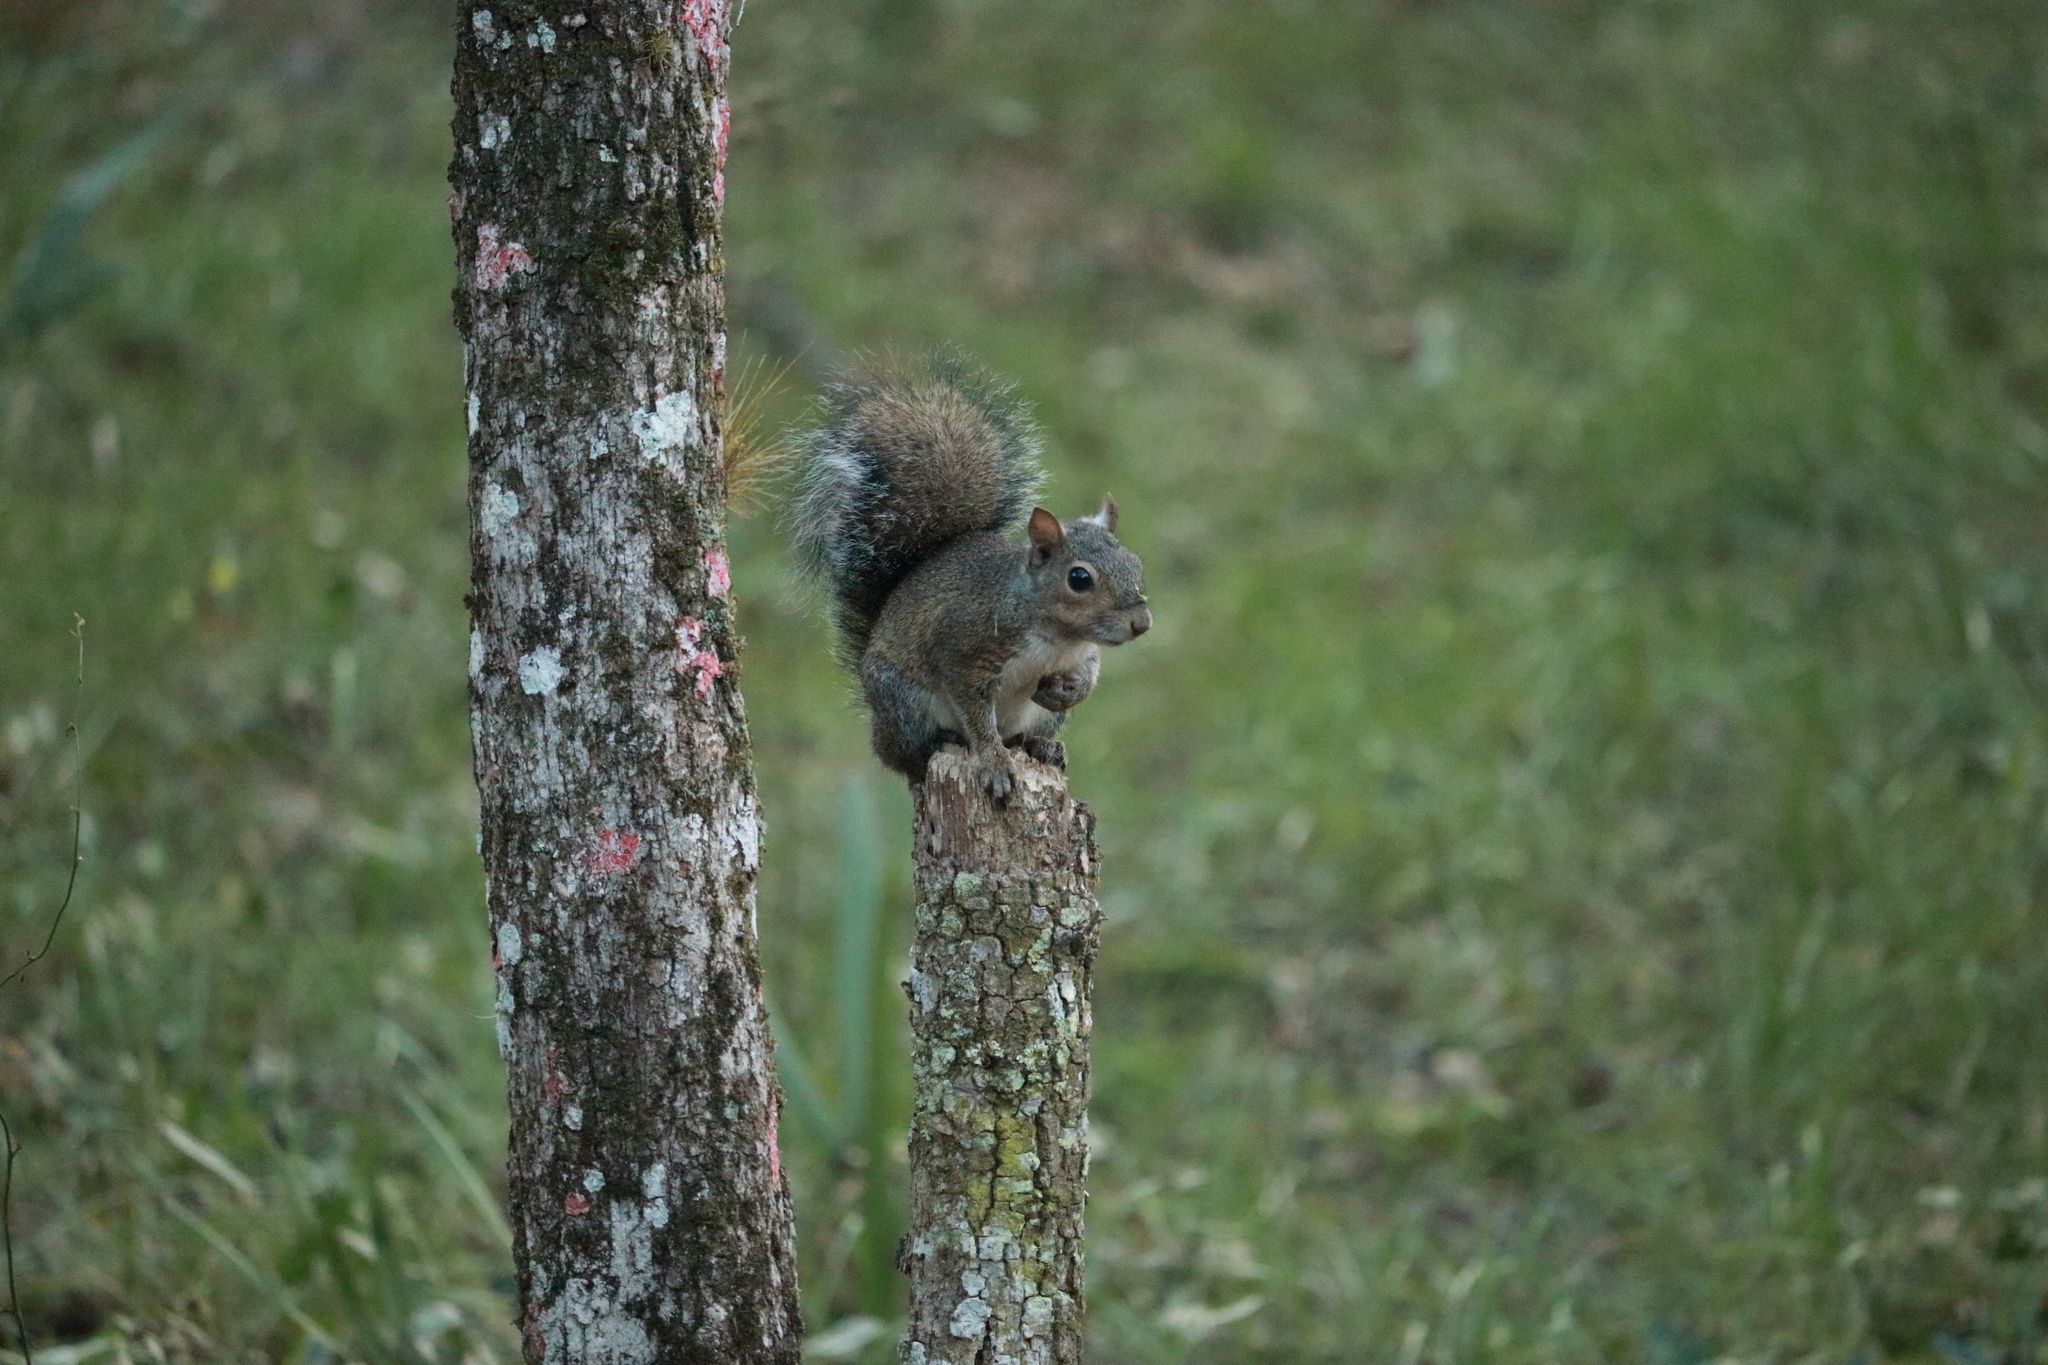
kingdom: Animalia
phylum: Chordata
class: Mammalia
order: Rodentia
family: Sciuridae
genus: Sciurus
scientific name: Sciurus carolinensis
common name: Eastern gray squirrel
